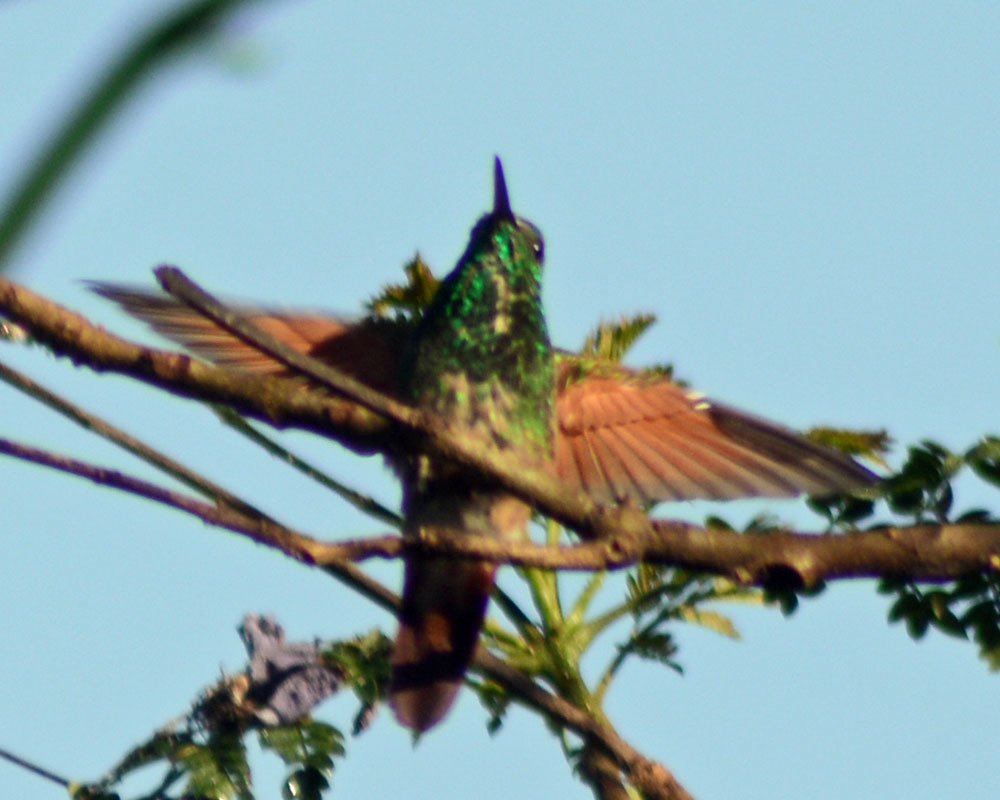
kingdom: Animalia
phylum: Chordata
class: Aves
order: Apodiformes
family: Trochilidae
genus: Saucerottia
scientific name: Saucerottia beryllina
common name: Berylline hummingbird
